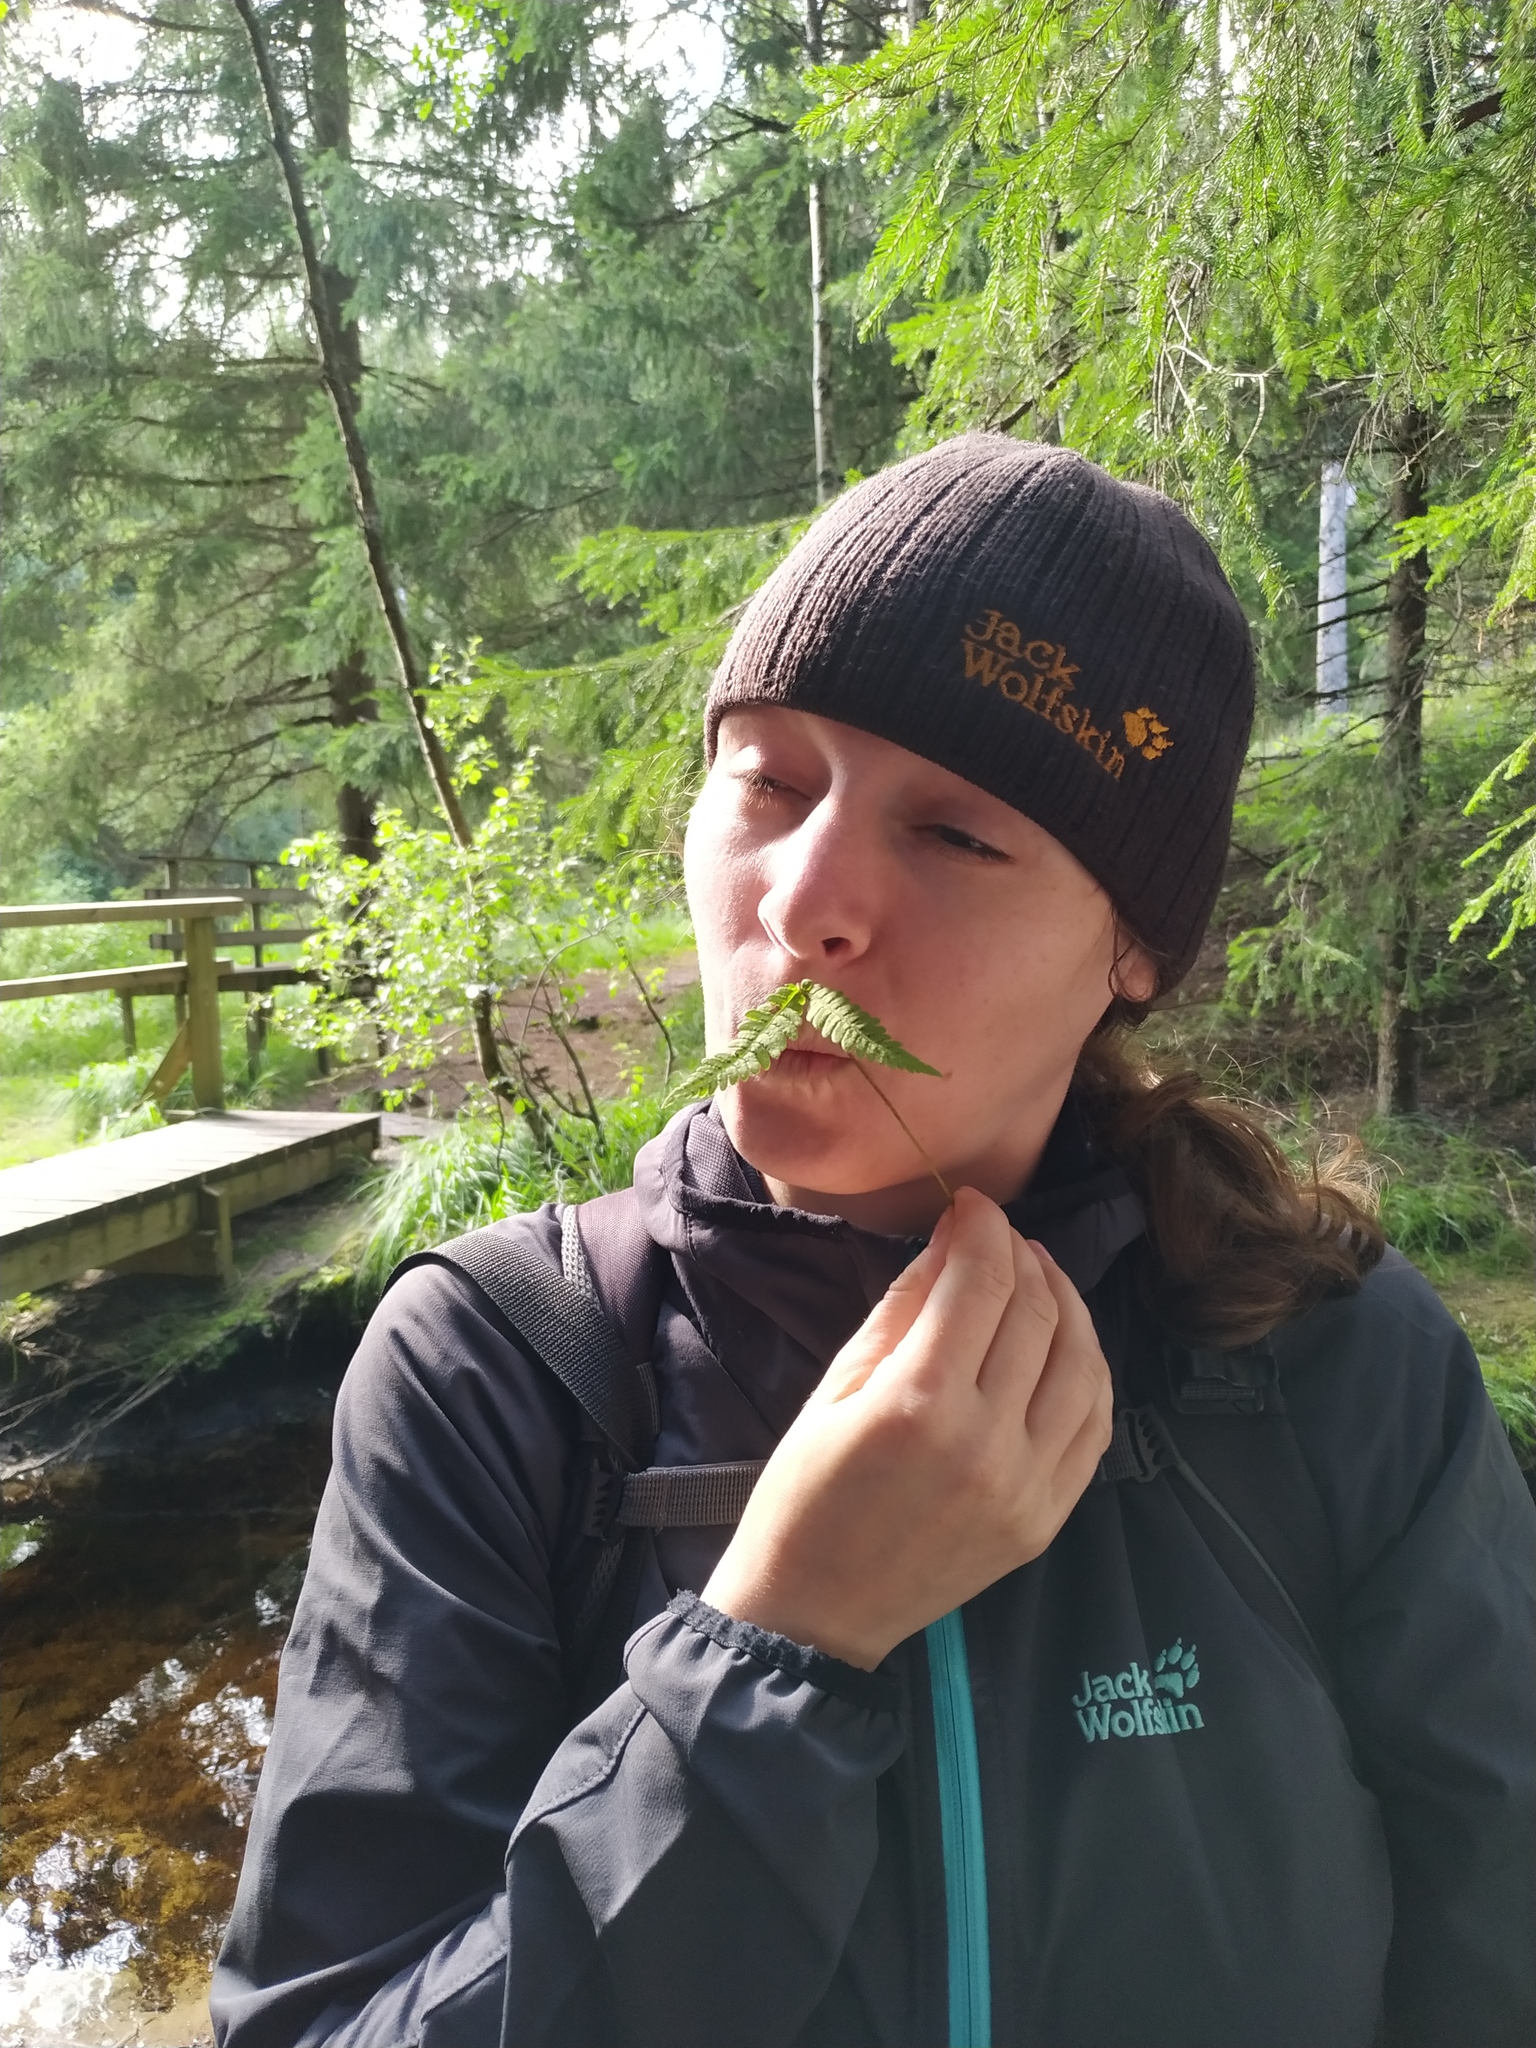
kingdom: Plantae
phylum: Tracheophyta
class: Polypodiopsida
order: Polypodiales
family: Thelypteridaceae
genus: Phegopteris
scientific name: Phegopteris connectilis
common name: Beech fern
